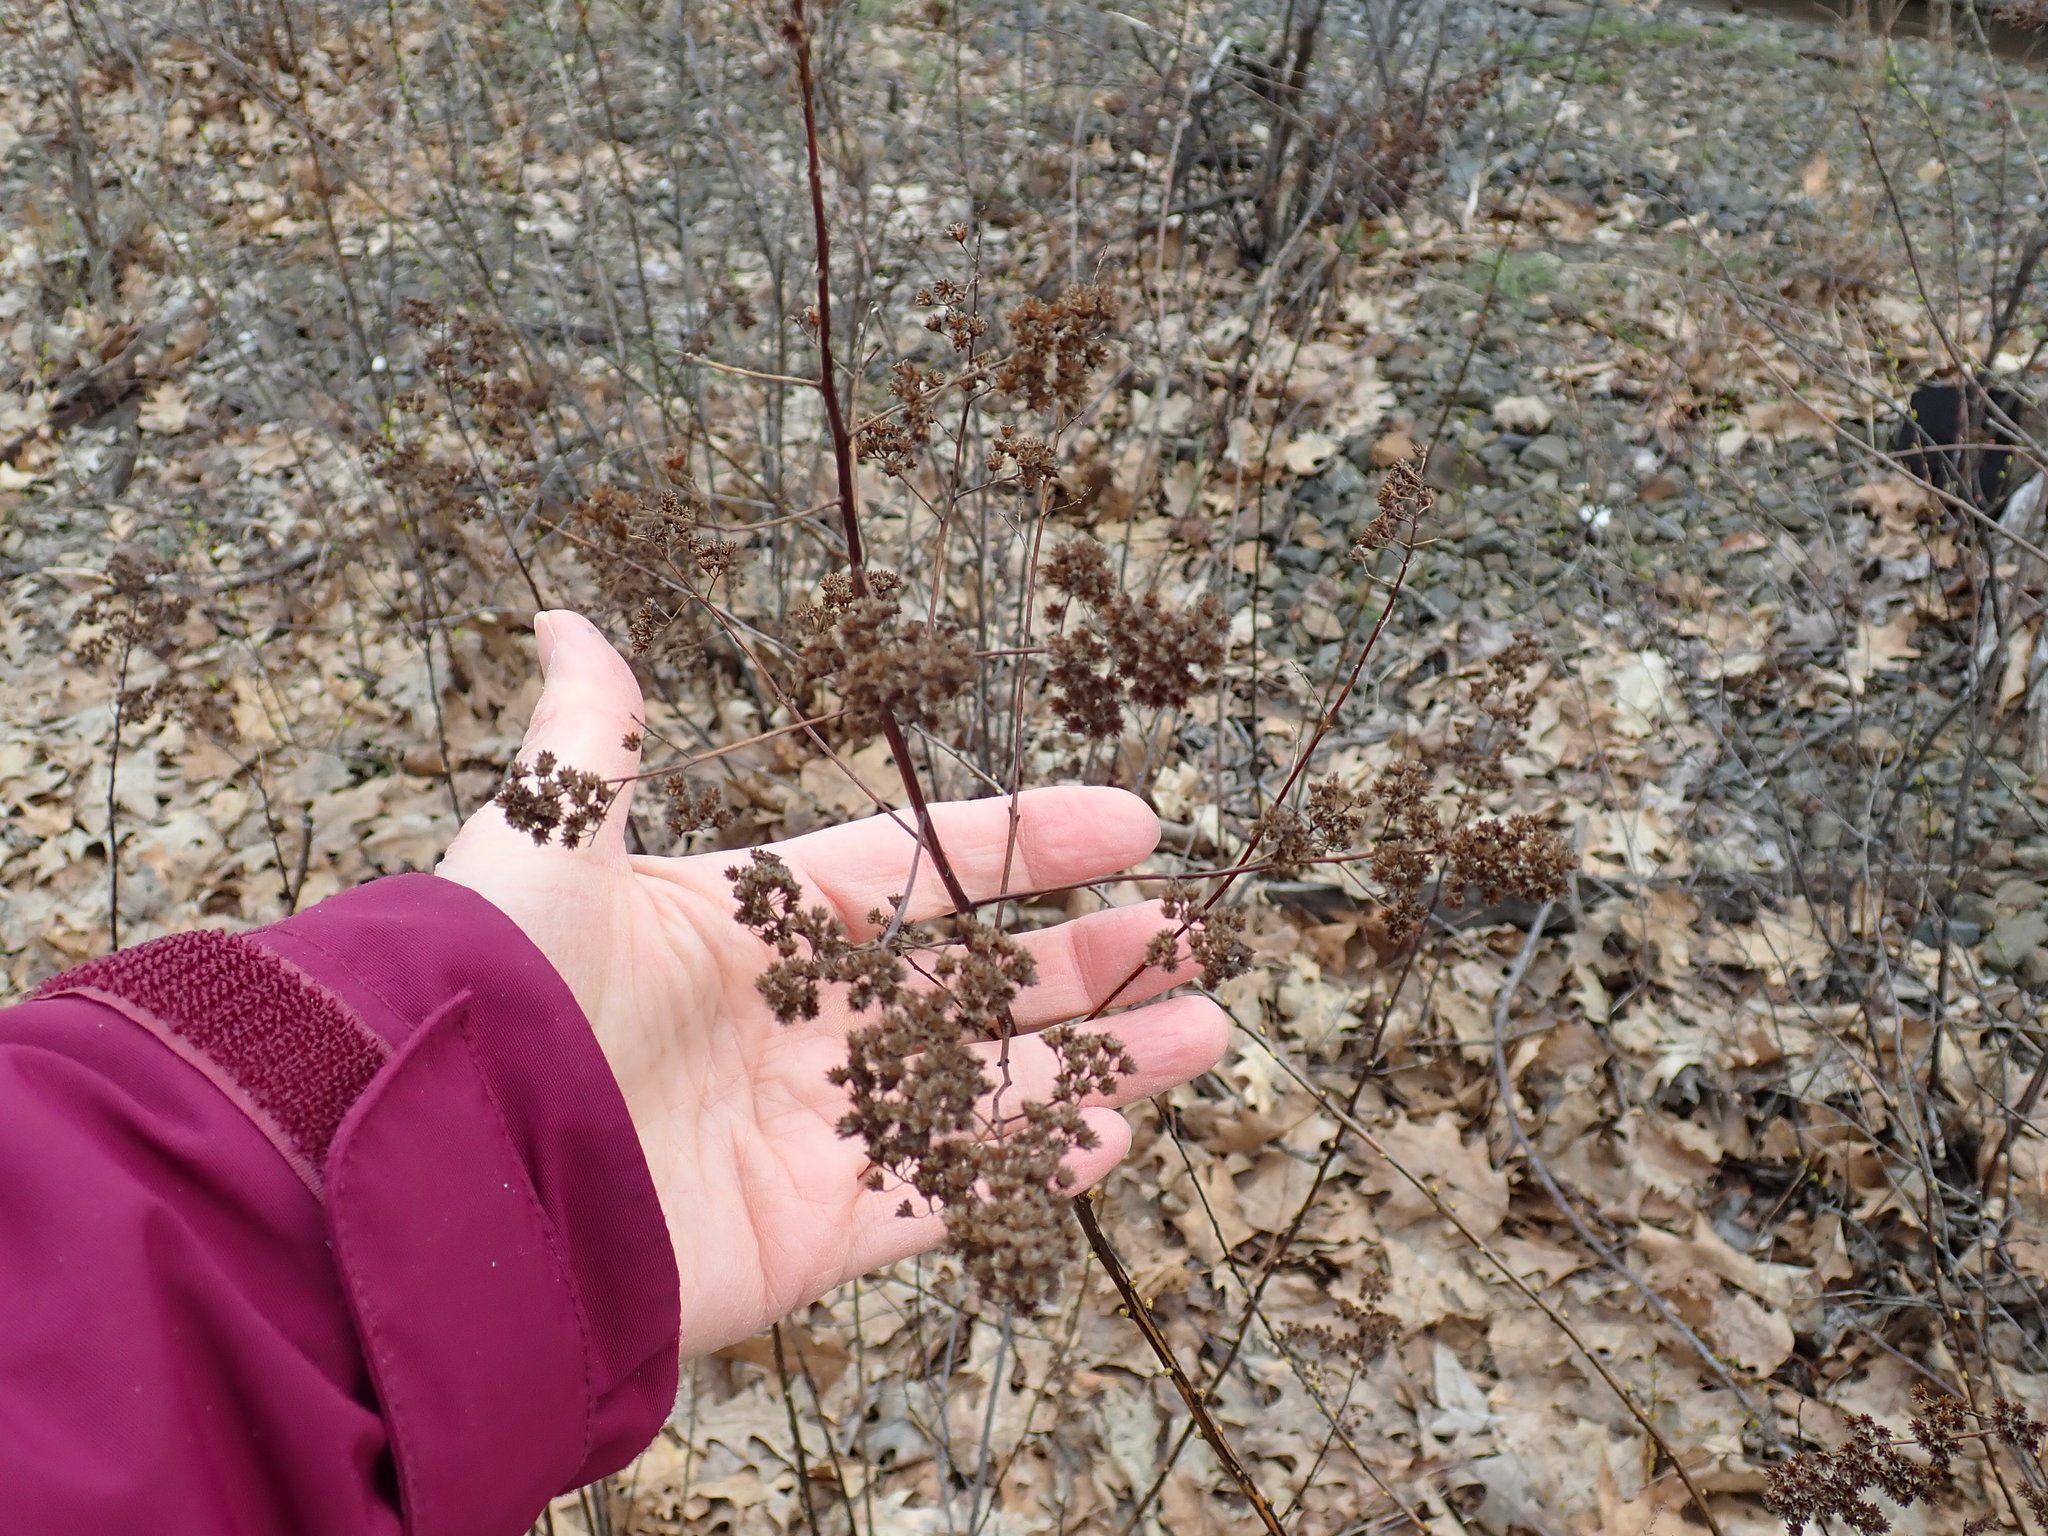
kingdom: Plantae
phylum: Tracheophyta
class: Magnoliopsida
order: Rosales
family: Rosaceae
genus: Spiraea
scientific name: Spiraea alba
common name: Pale bridewort
